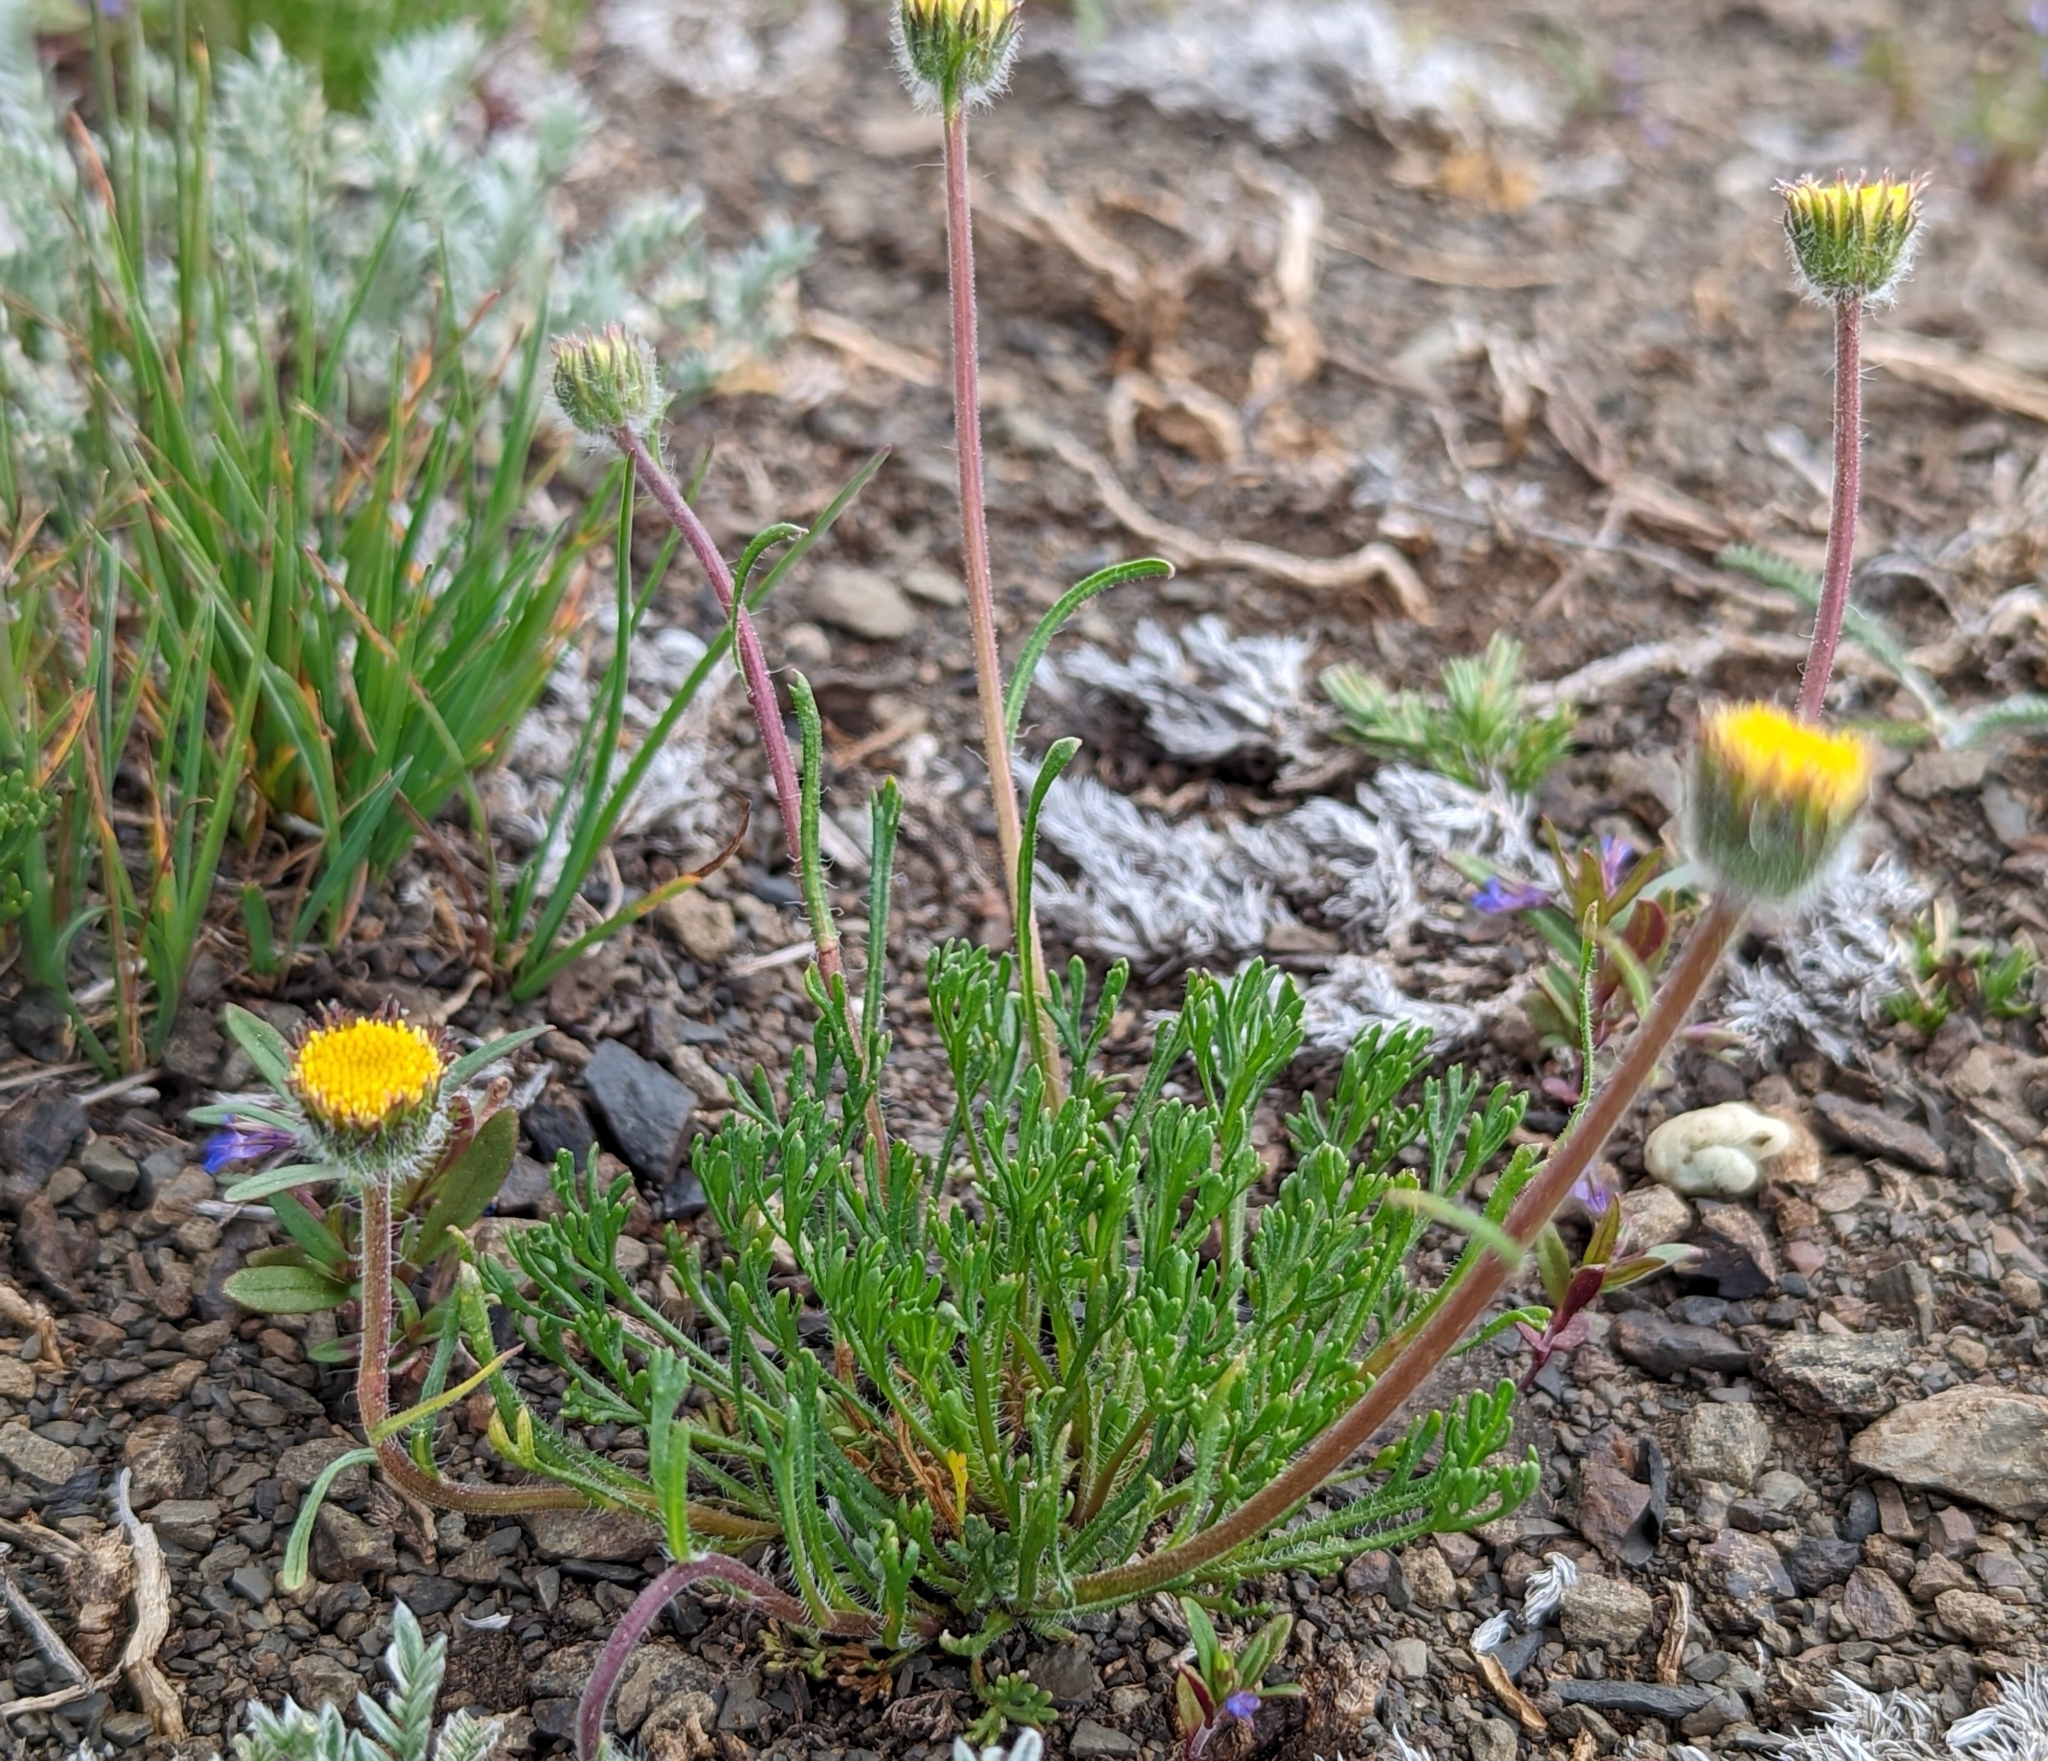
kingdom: Plantae
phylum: Tracheophyta
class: Magnoliopsida
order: Asterales
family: Asteraceae
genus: Erigeron
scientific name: Erigeron compositus
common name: Dwarf mountain fleabane
